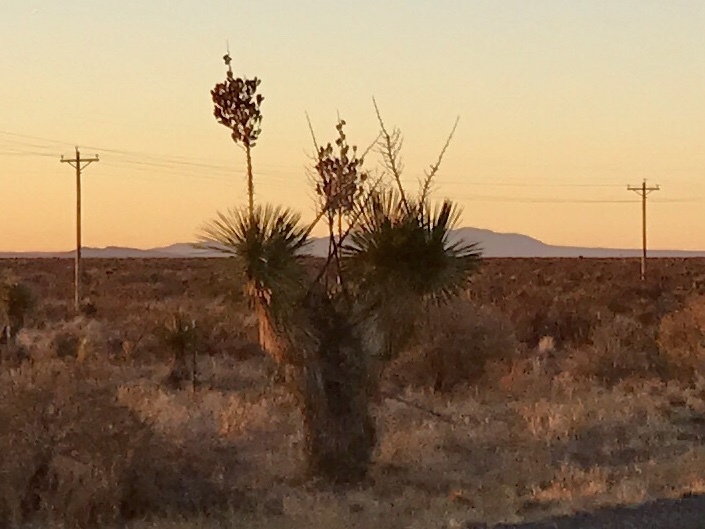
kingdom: Plantae
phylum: Tracheophyta
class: Liliopsida
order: Asparagales
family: Asparagaceae
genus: Yucca
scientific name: Yucca elata
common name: Palmella
